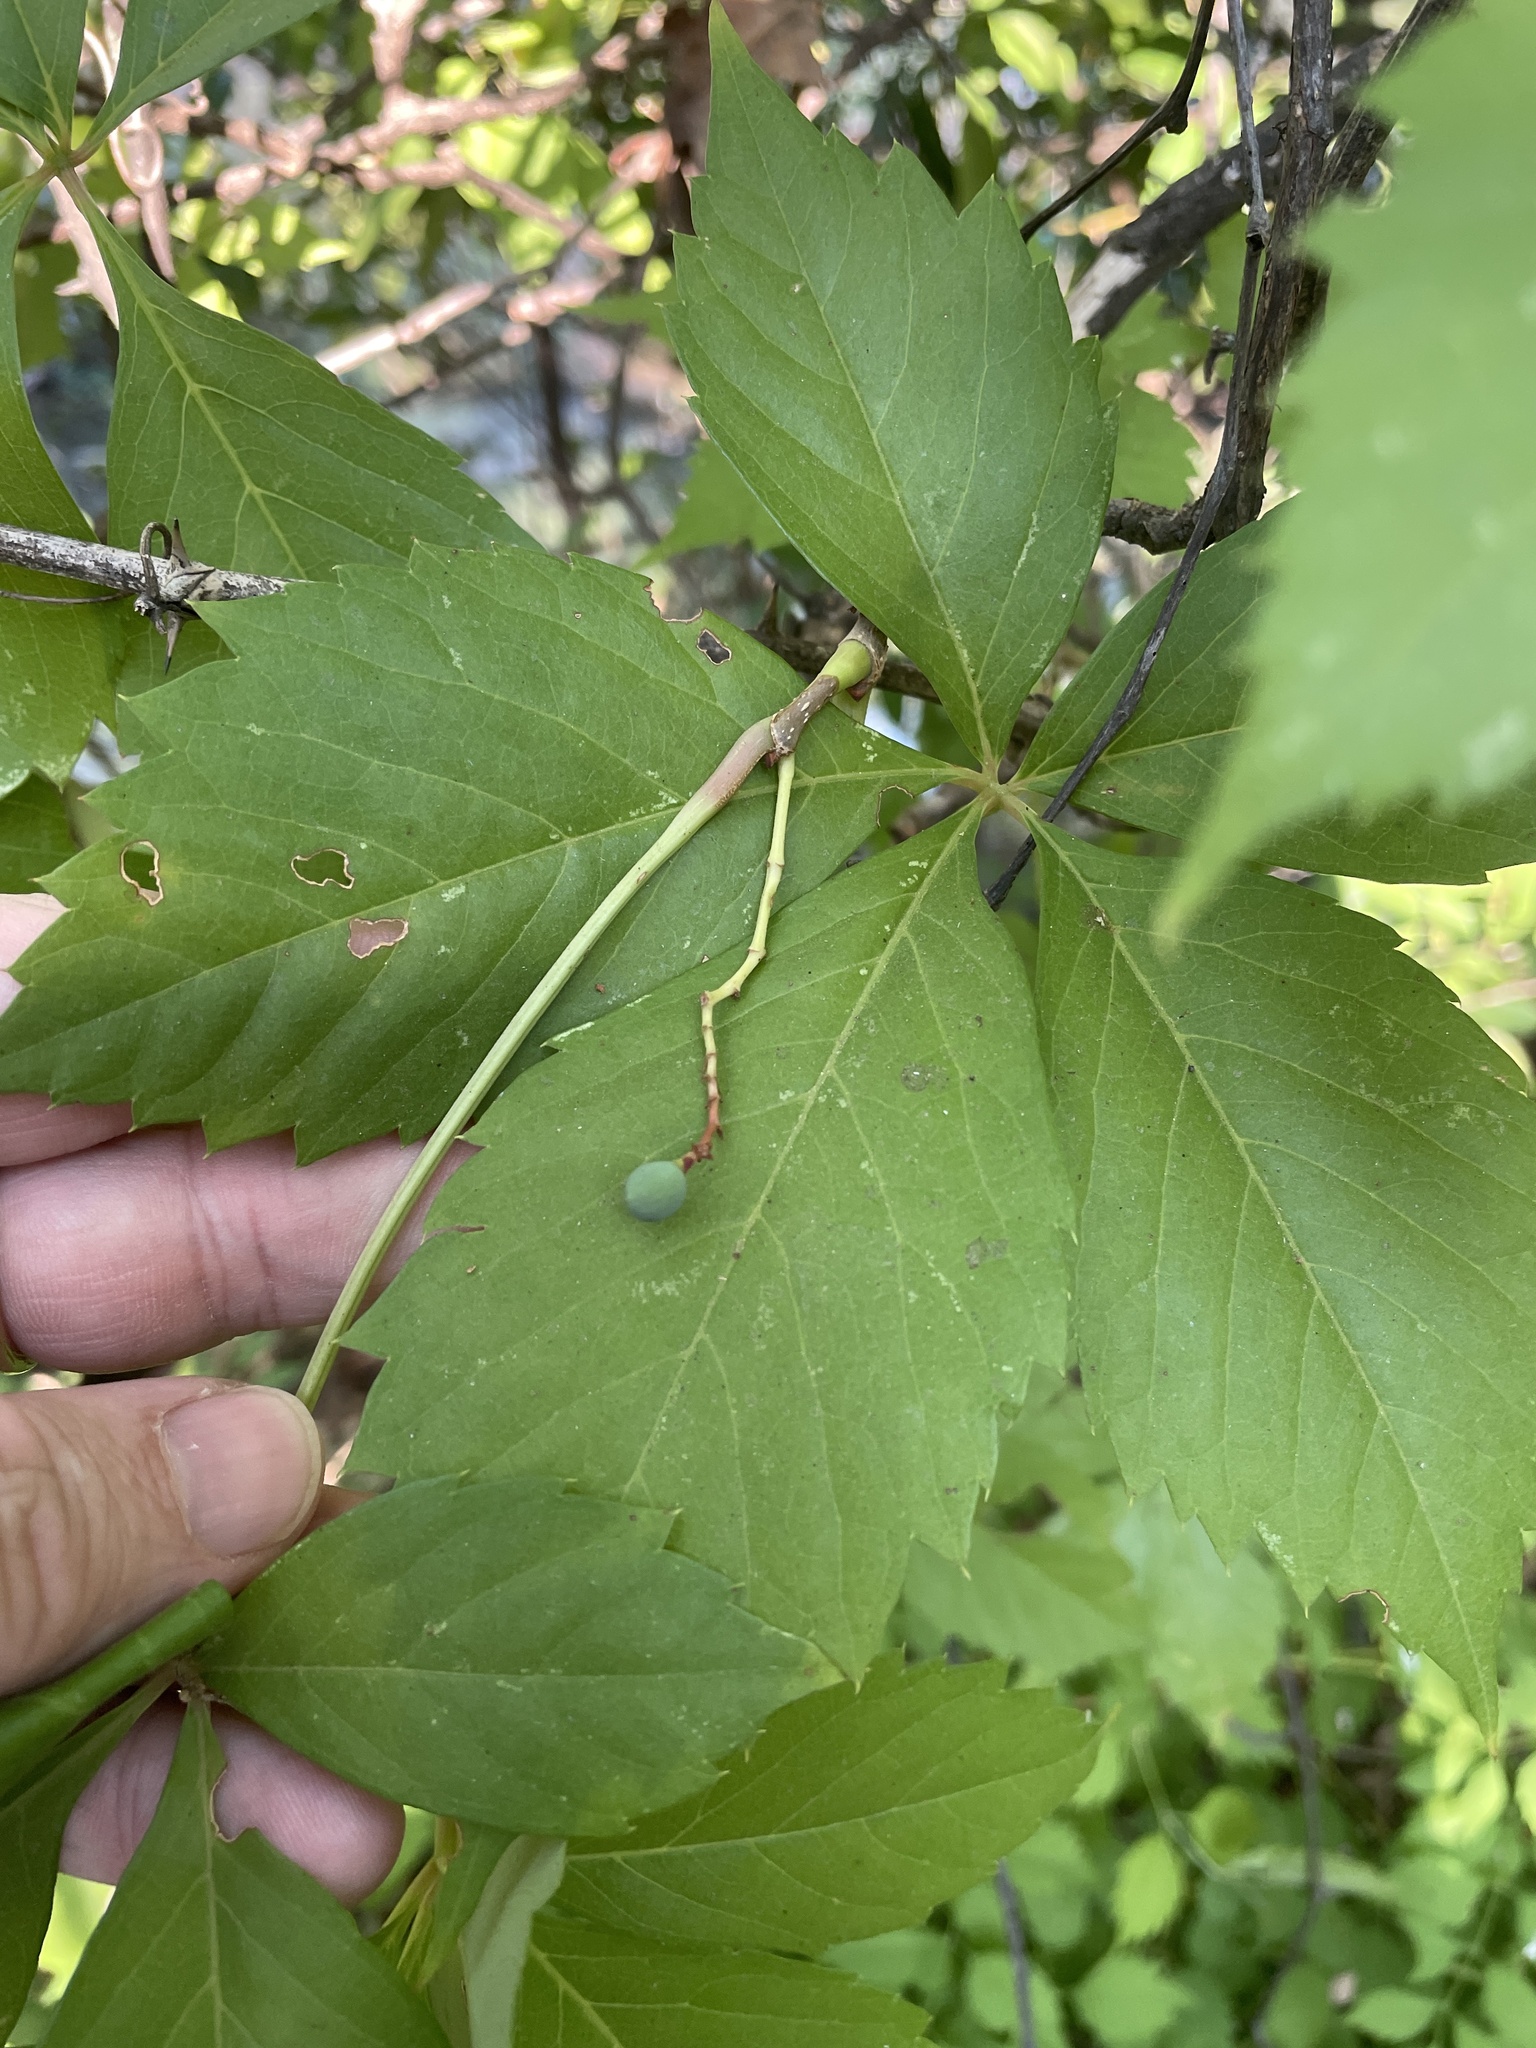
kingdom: Plantae
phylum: Tracheophyta
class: Magnoliopsida
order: Vitales
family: Vitaceae
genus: Parthenocissus
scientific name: Parthenocissus quinquefolia
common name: Virginia-creeper
